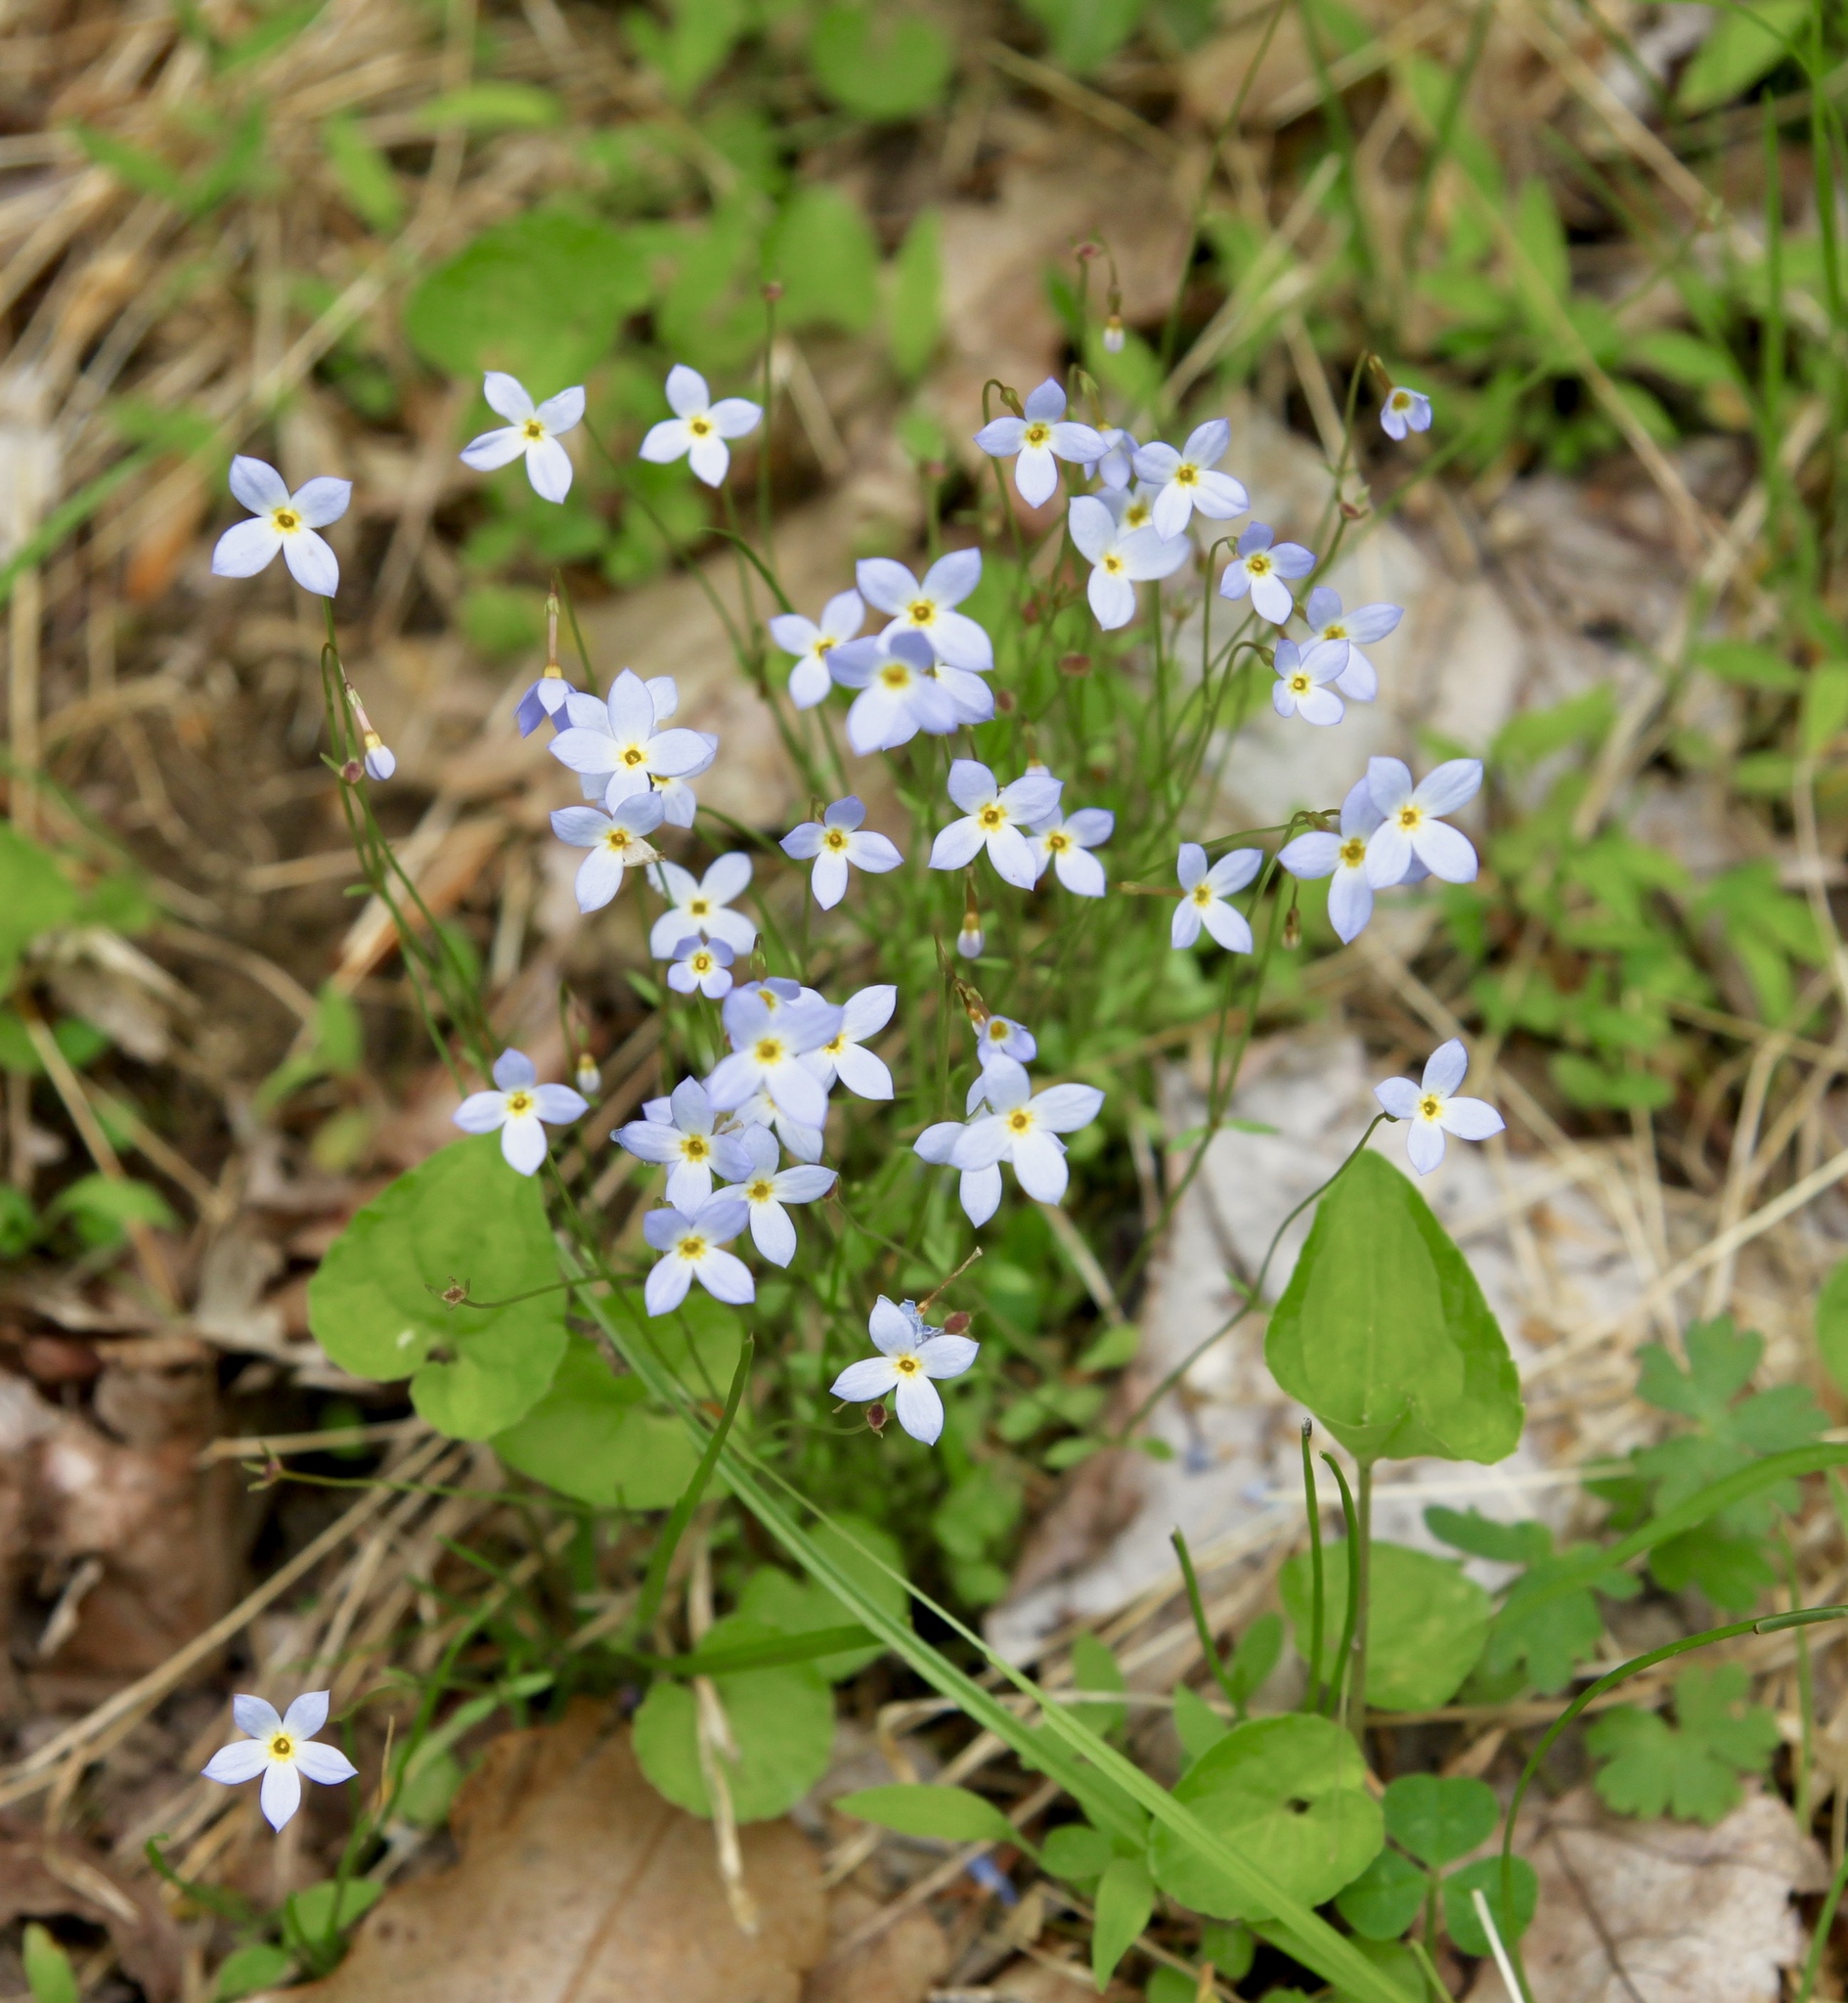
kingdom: Plantae
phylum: Tracheophyta
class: Magnoliopsida
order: Gentianales
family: Rubiaceae
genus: Houstonia
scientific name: Houstonia caerulea
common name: Bluets
